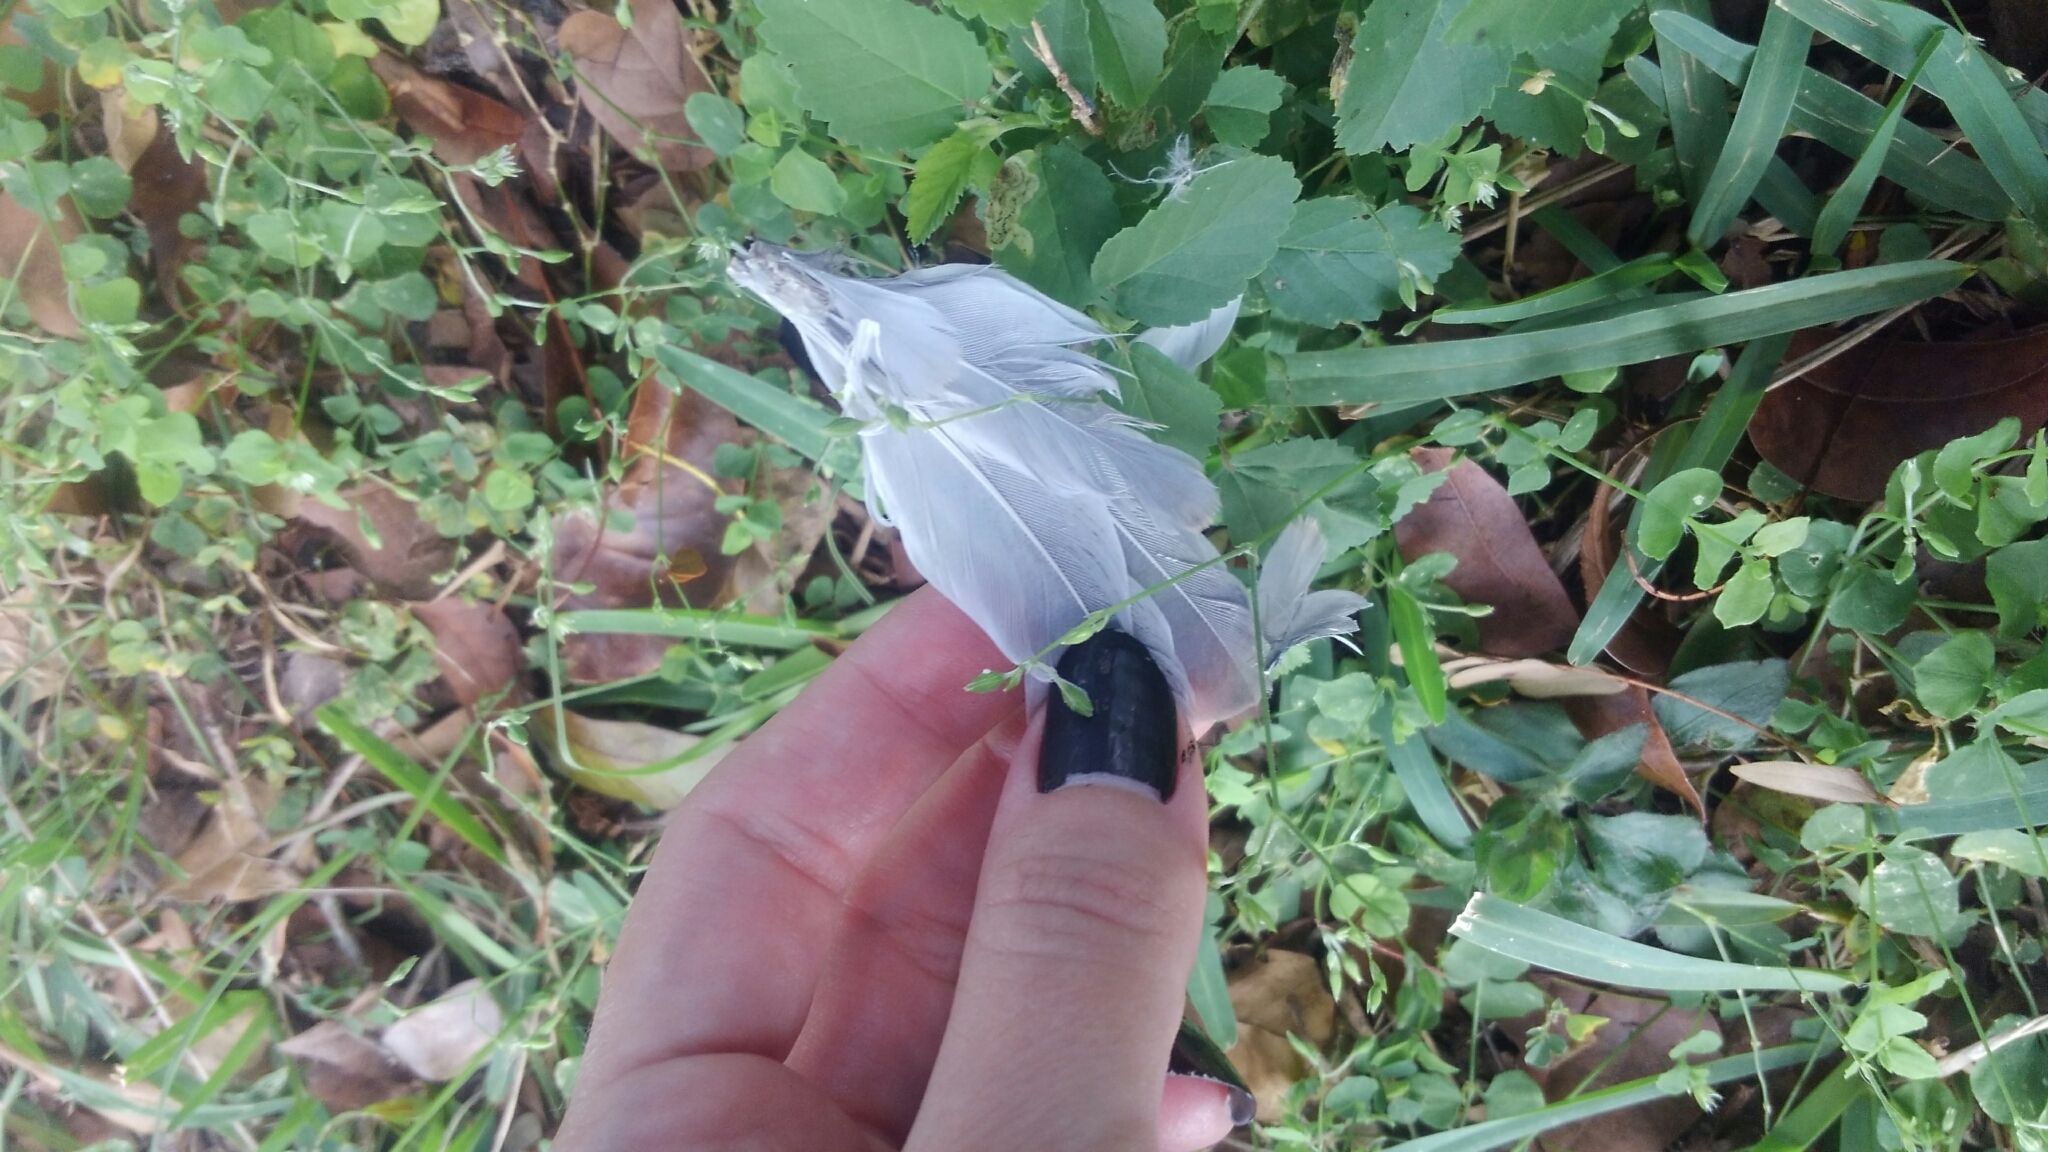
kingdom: Animalia
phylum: Chordata
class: Aves
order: Columbiformes
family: Columbidae
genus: Streptopelia
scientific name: Streptopelia decaocto
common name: Eurasian collared dove
